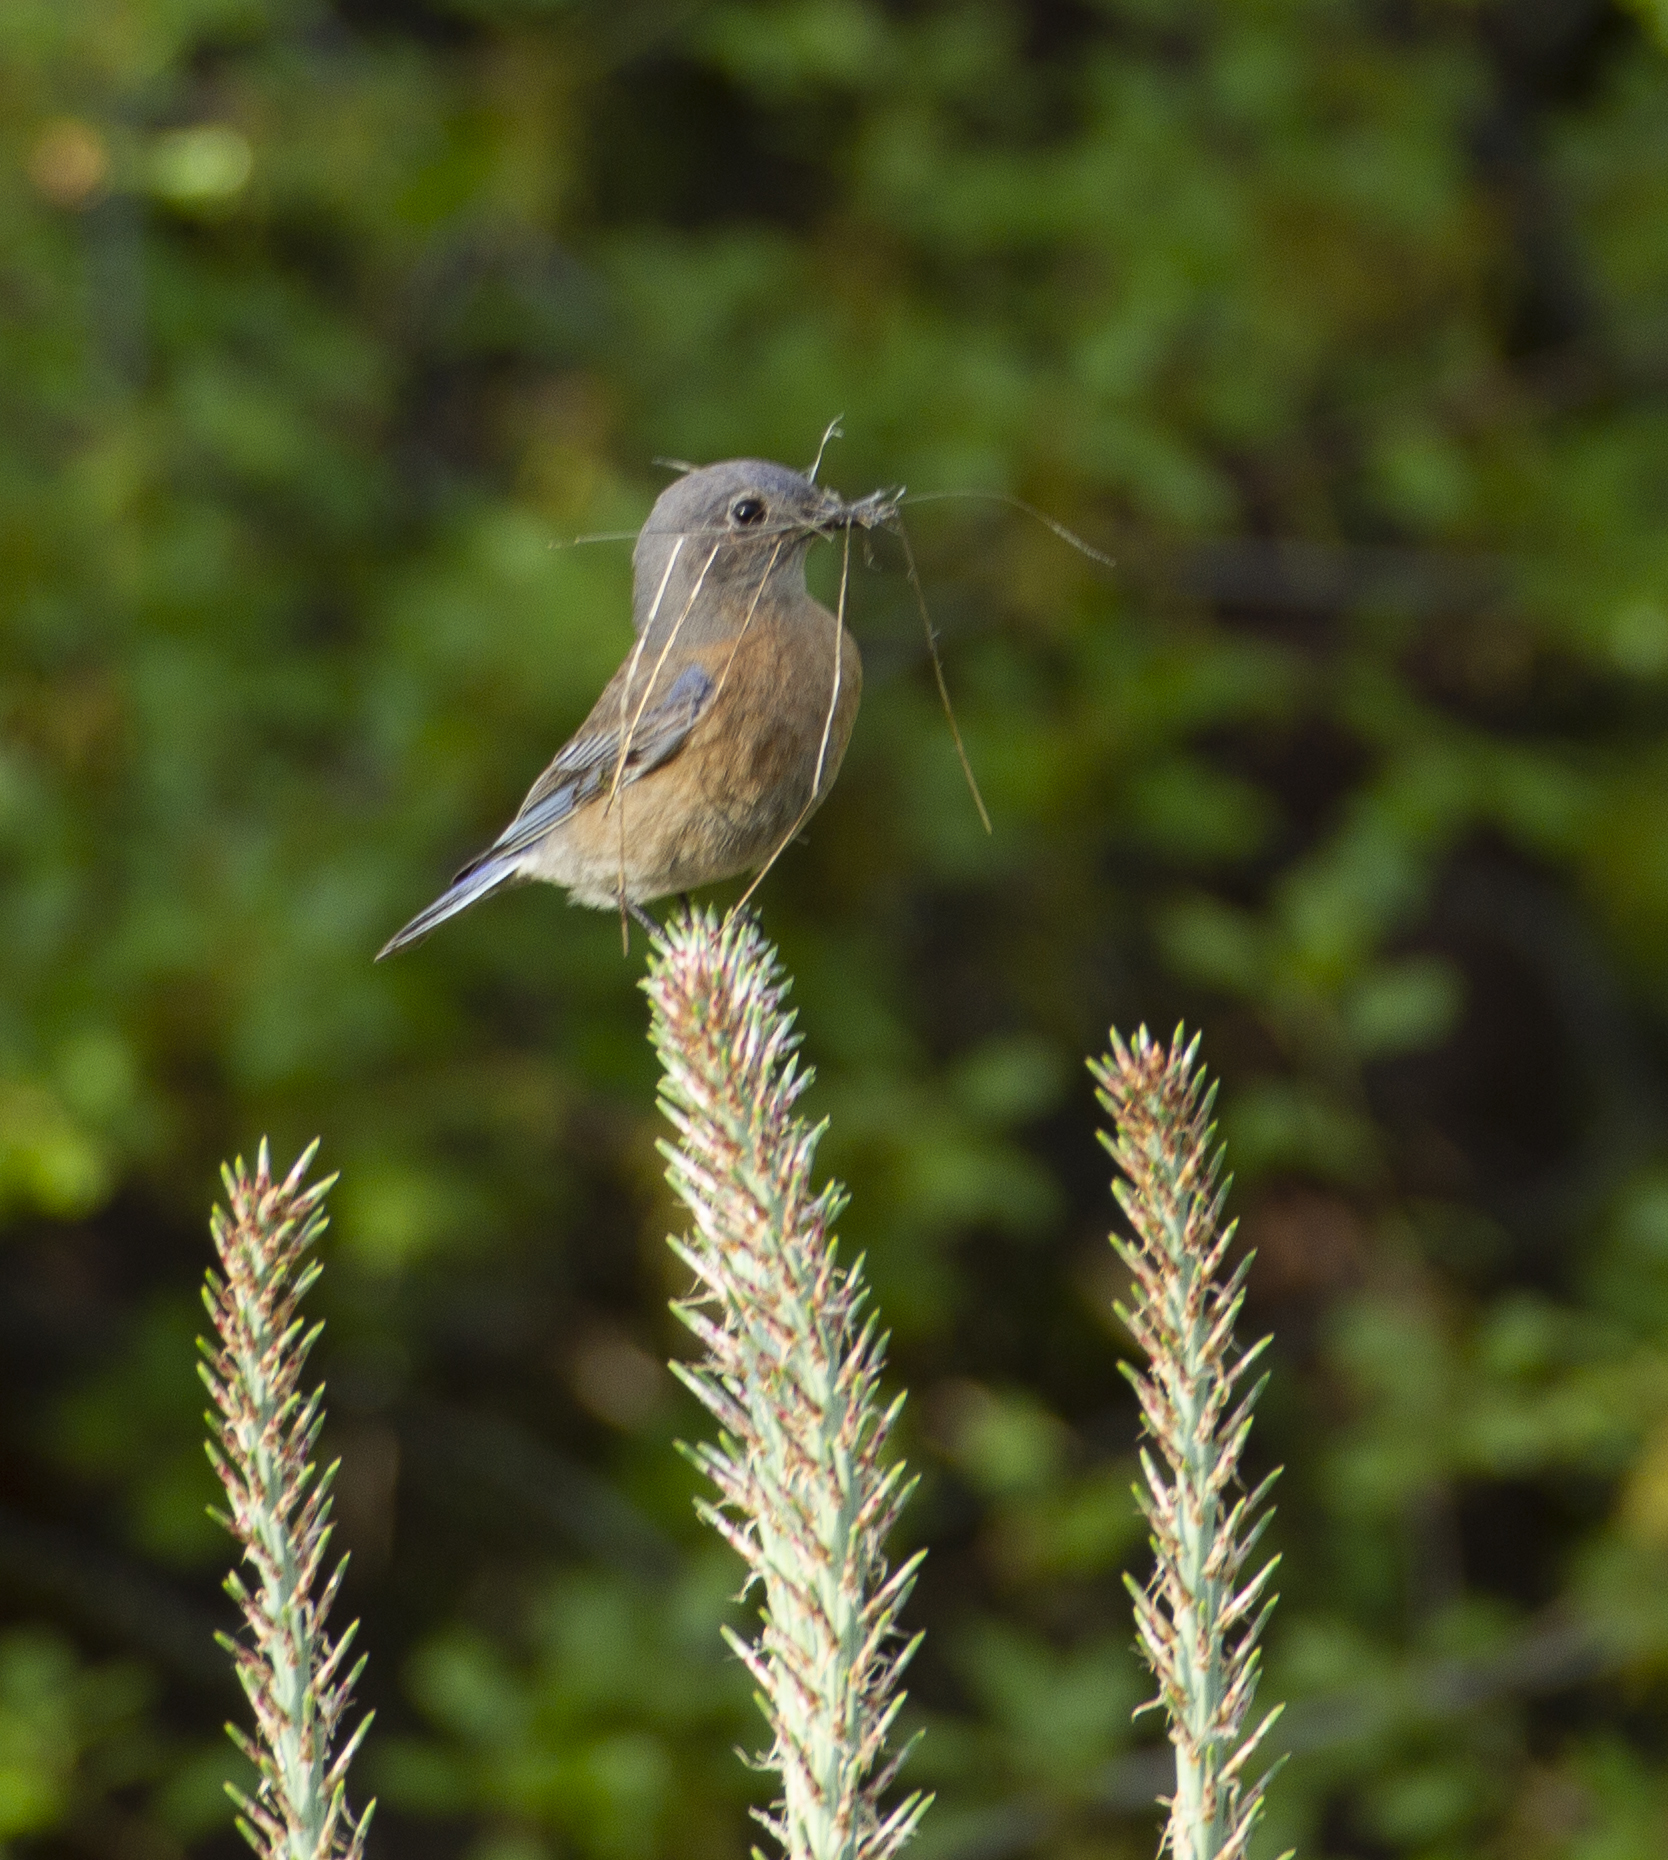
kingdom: Animalia
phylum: Chordata
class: Aves
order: Passeriformes
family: Turdidae
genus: Sialia
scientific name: Sialia mexicana
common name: Western bluebird
